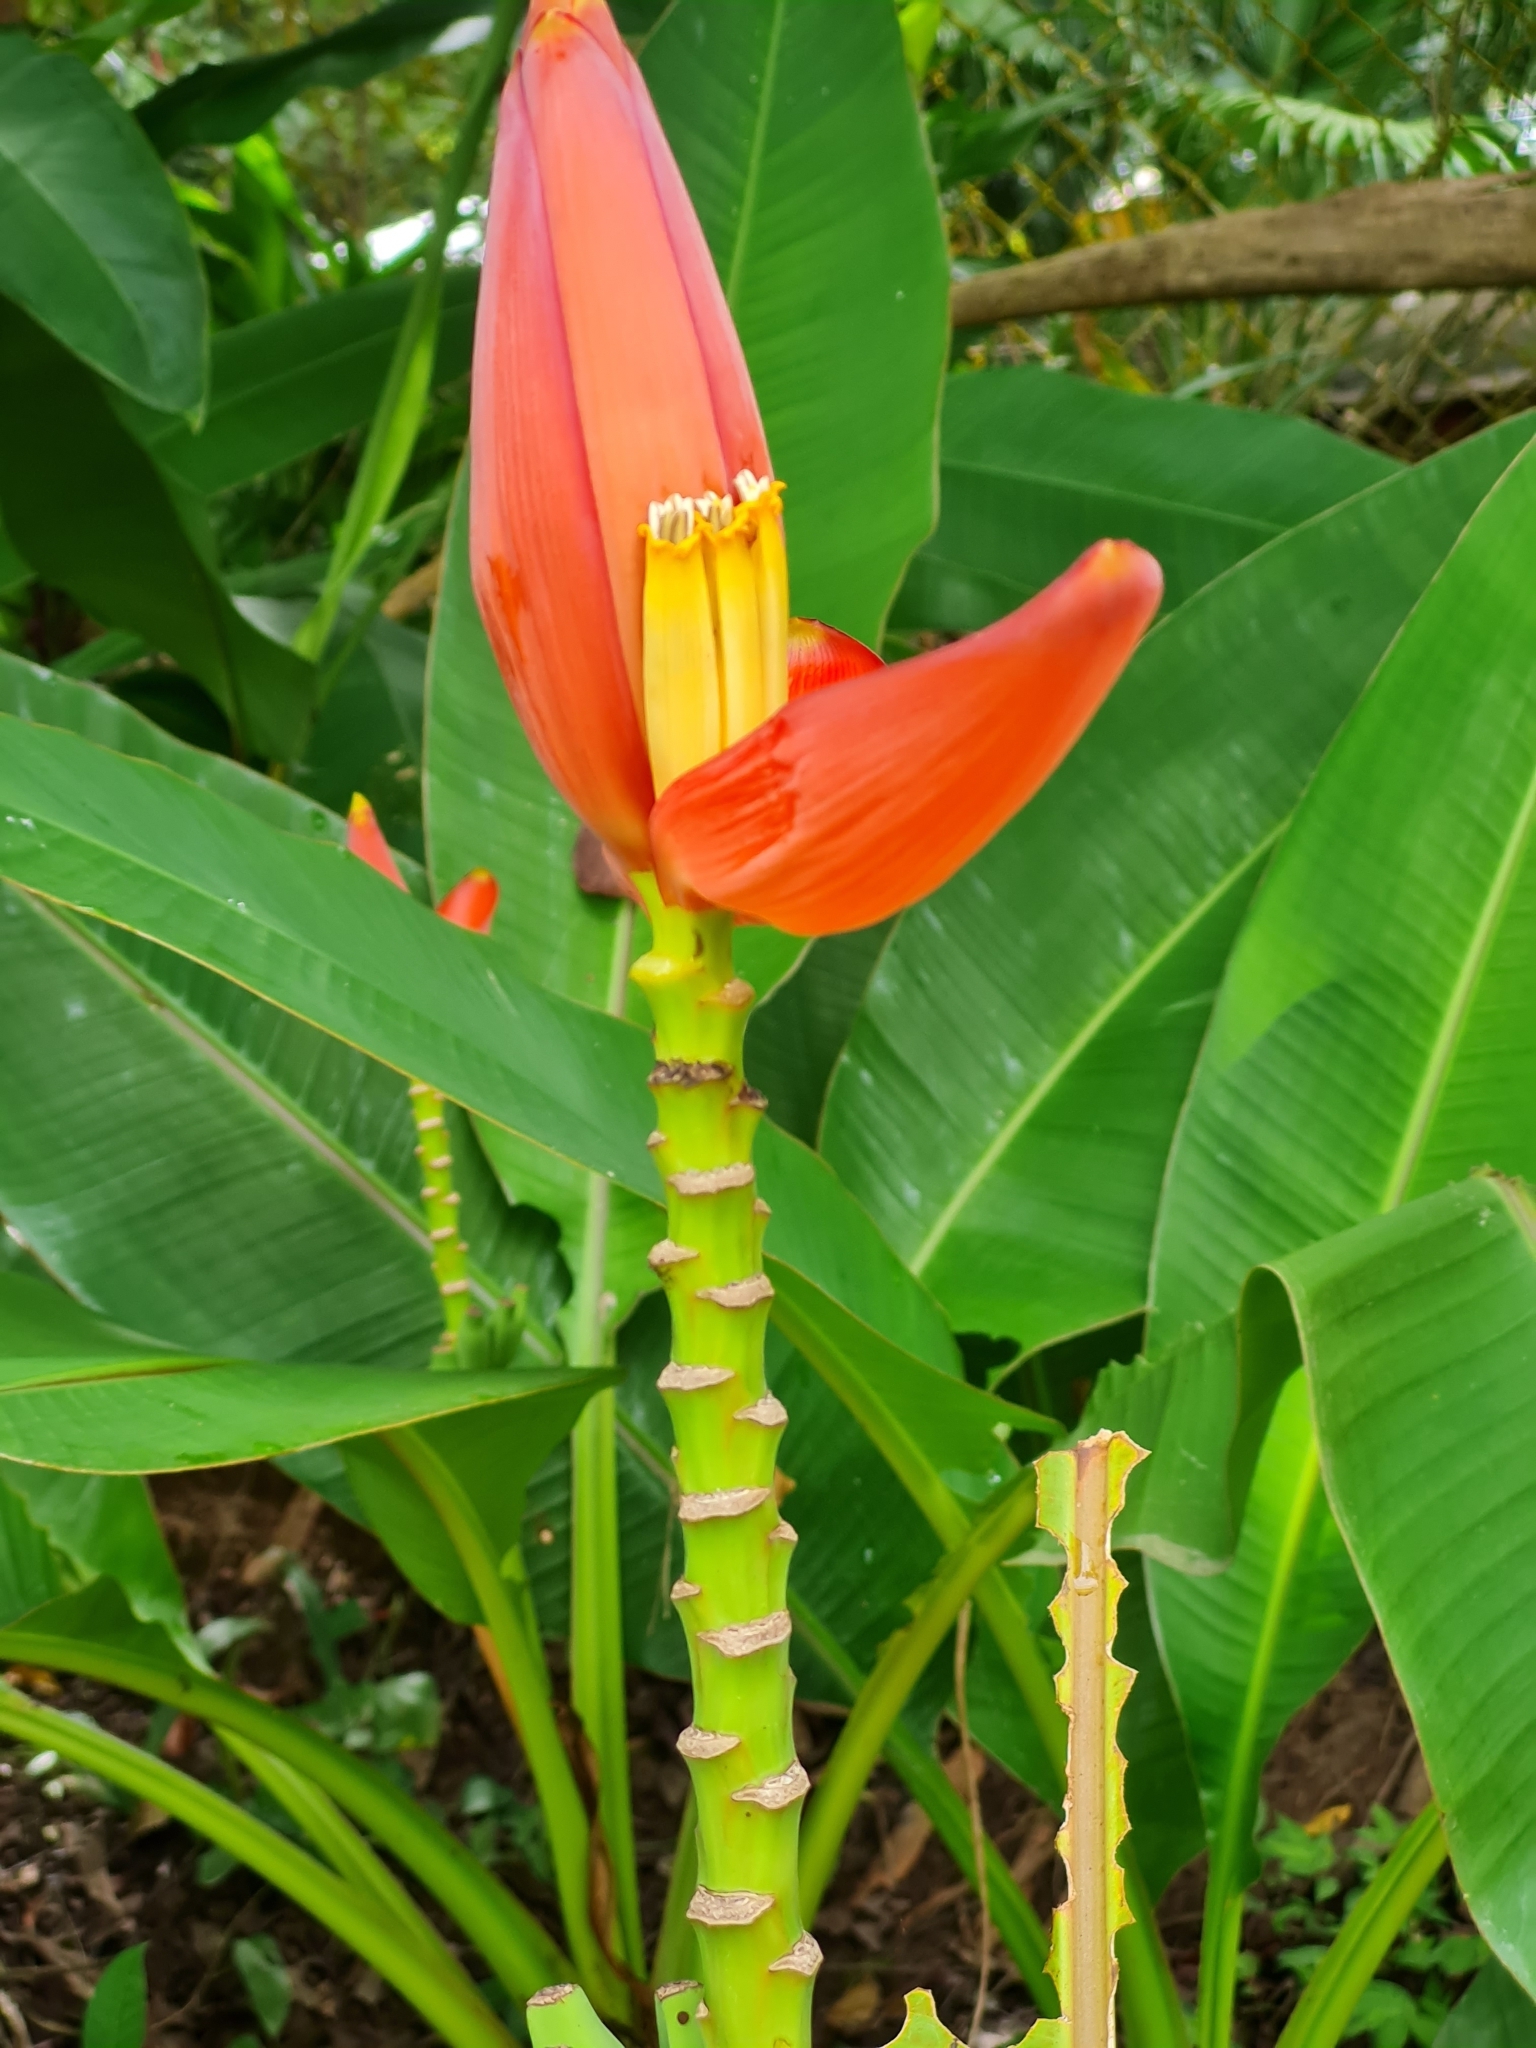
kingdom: Plantae
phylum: Tracheophyta
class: Liliopsida
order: Zingiberales
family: Musaceae
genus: Musa
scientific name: Musa rubra
